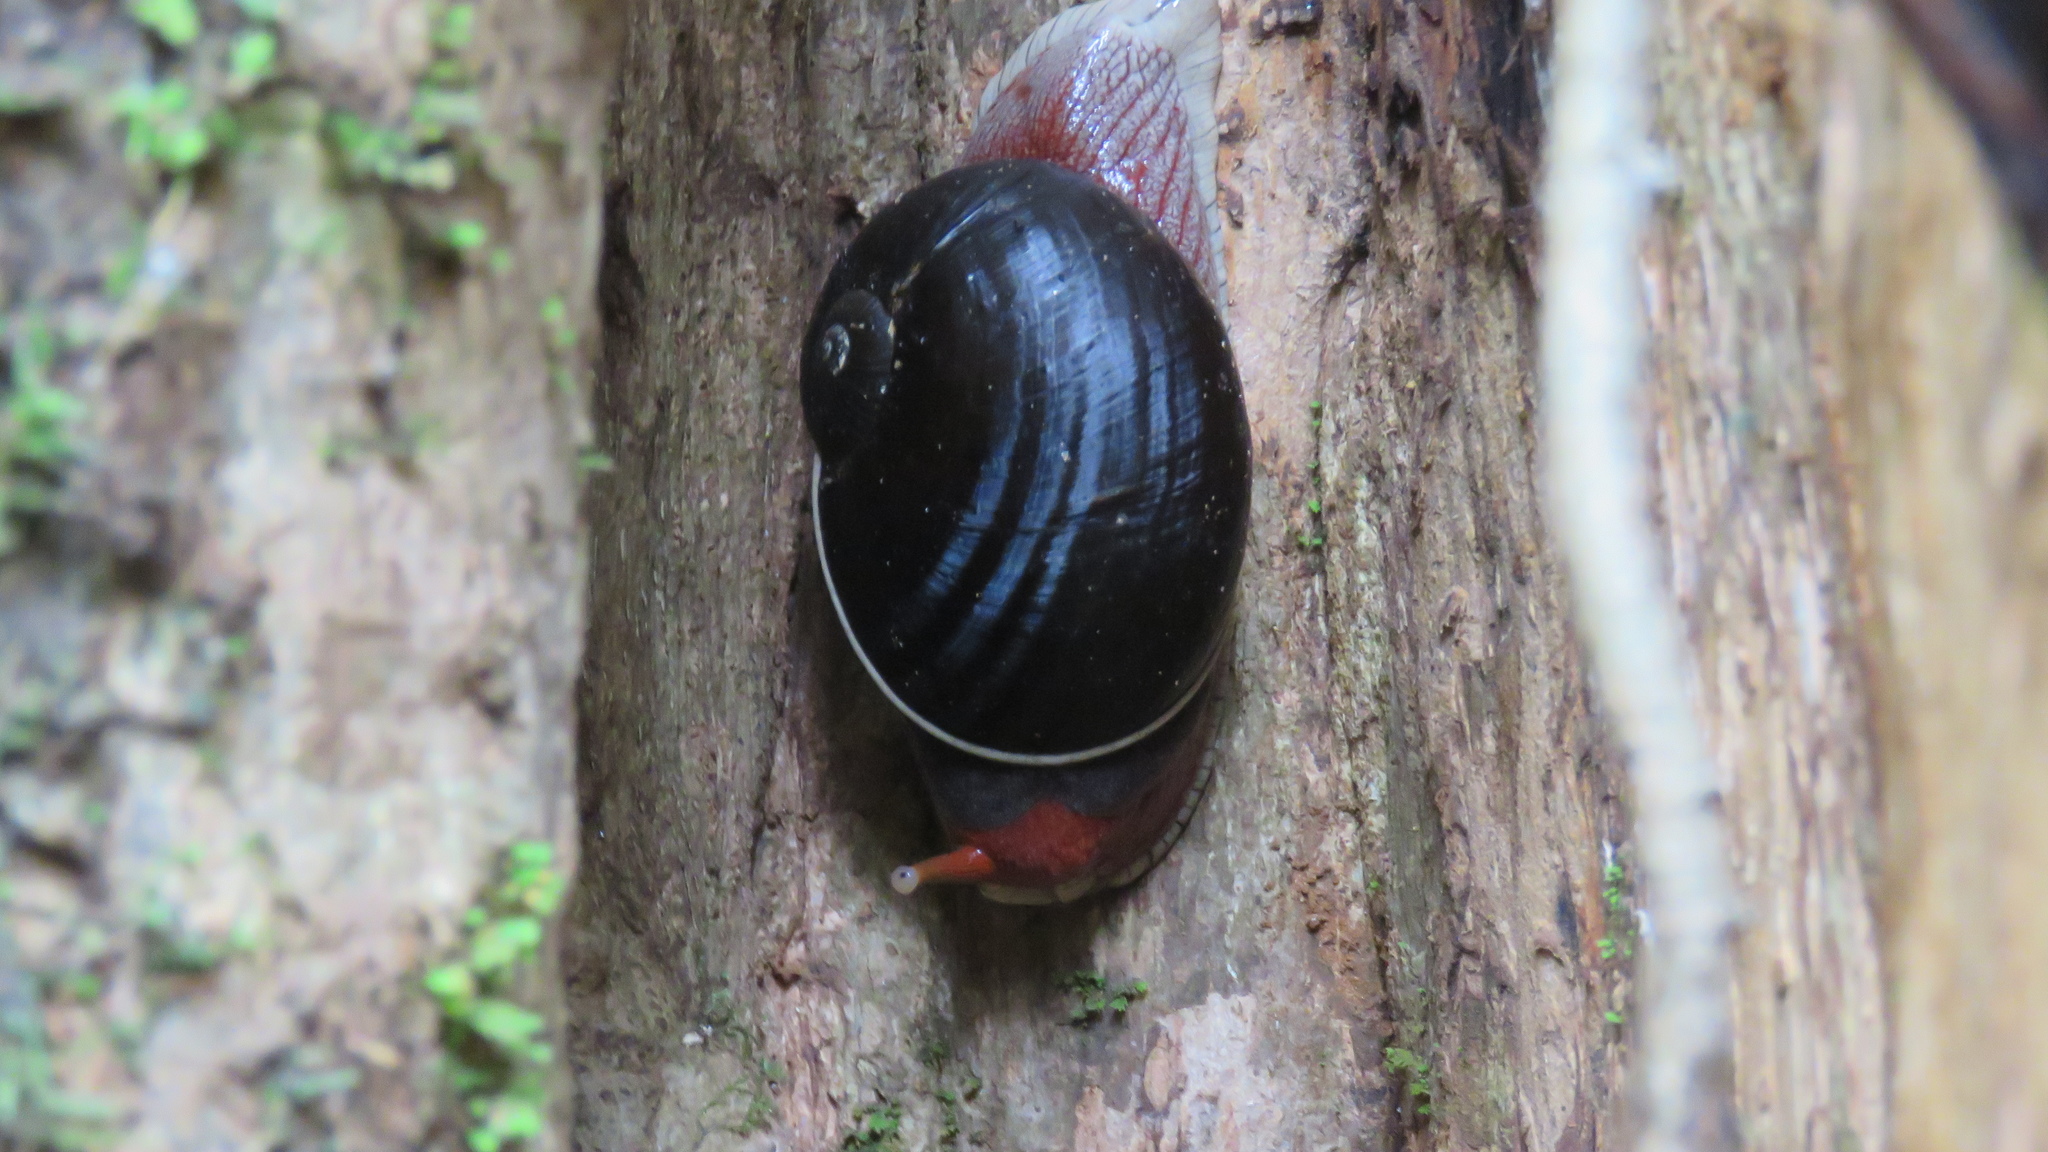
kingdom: Animalia
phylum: Mollusca
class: Gastropoda
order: Stylommatophora
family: Ariophantidae
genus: Indrella
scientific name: Indrella ampulla
